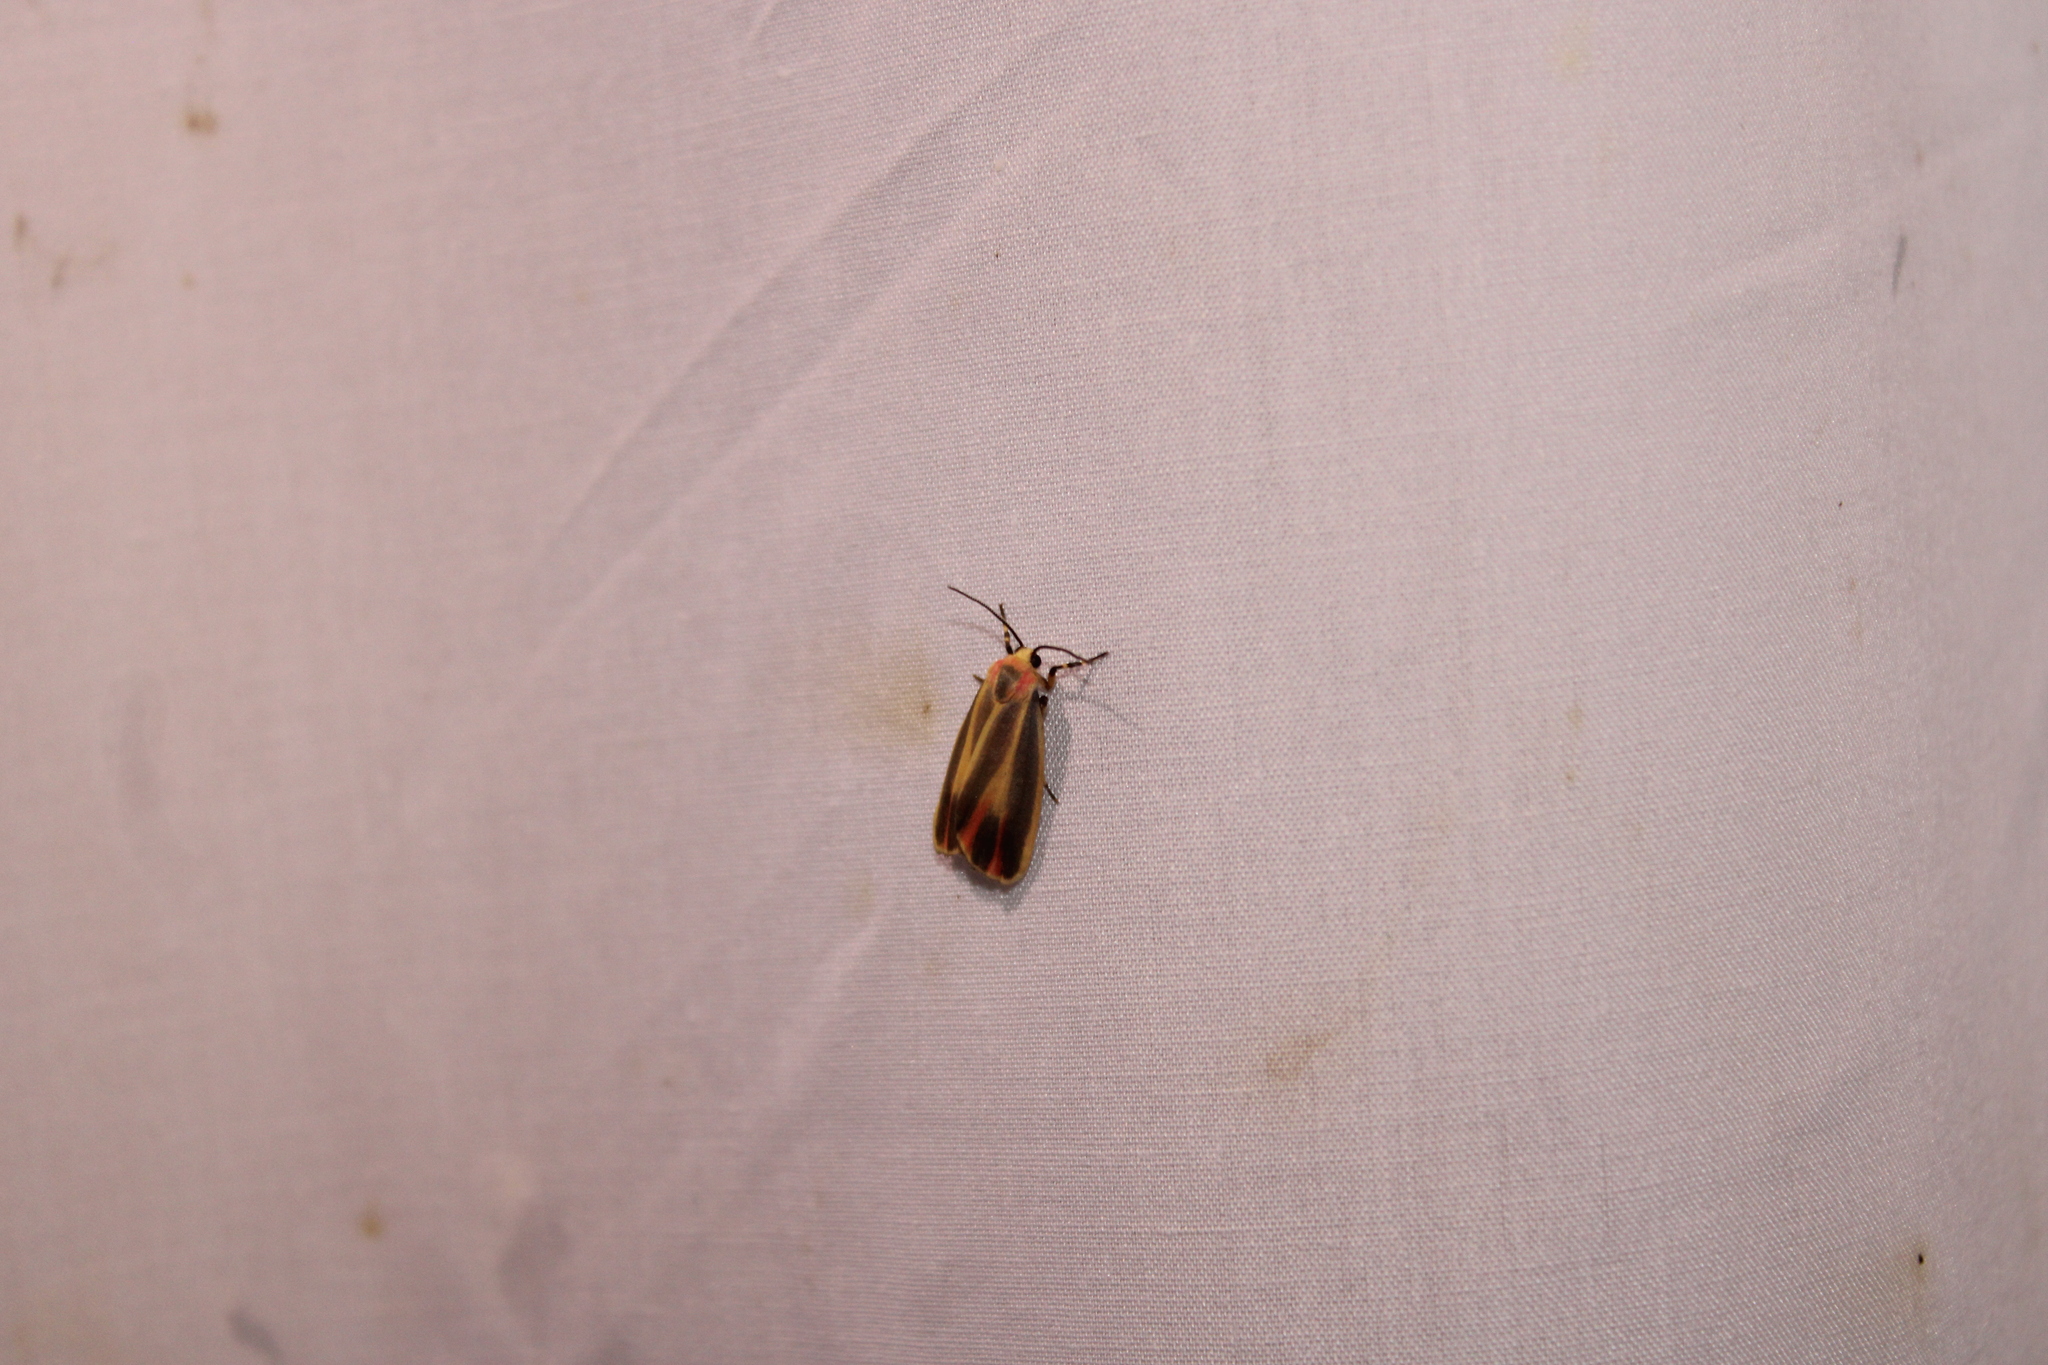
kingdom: Animalia
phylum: Arthropoda
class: Insecta
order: Lepidoptera
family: Erebidae
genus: Hypoprepia
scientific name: Hypoprepia fucosa
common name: Painted lichen moth
